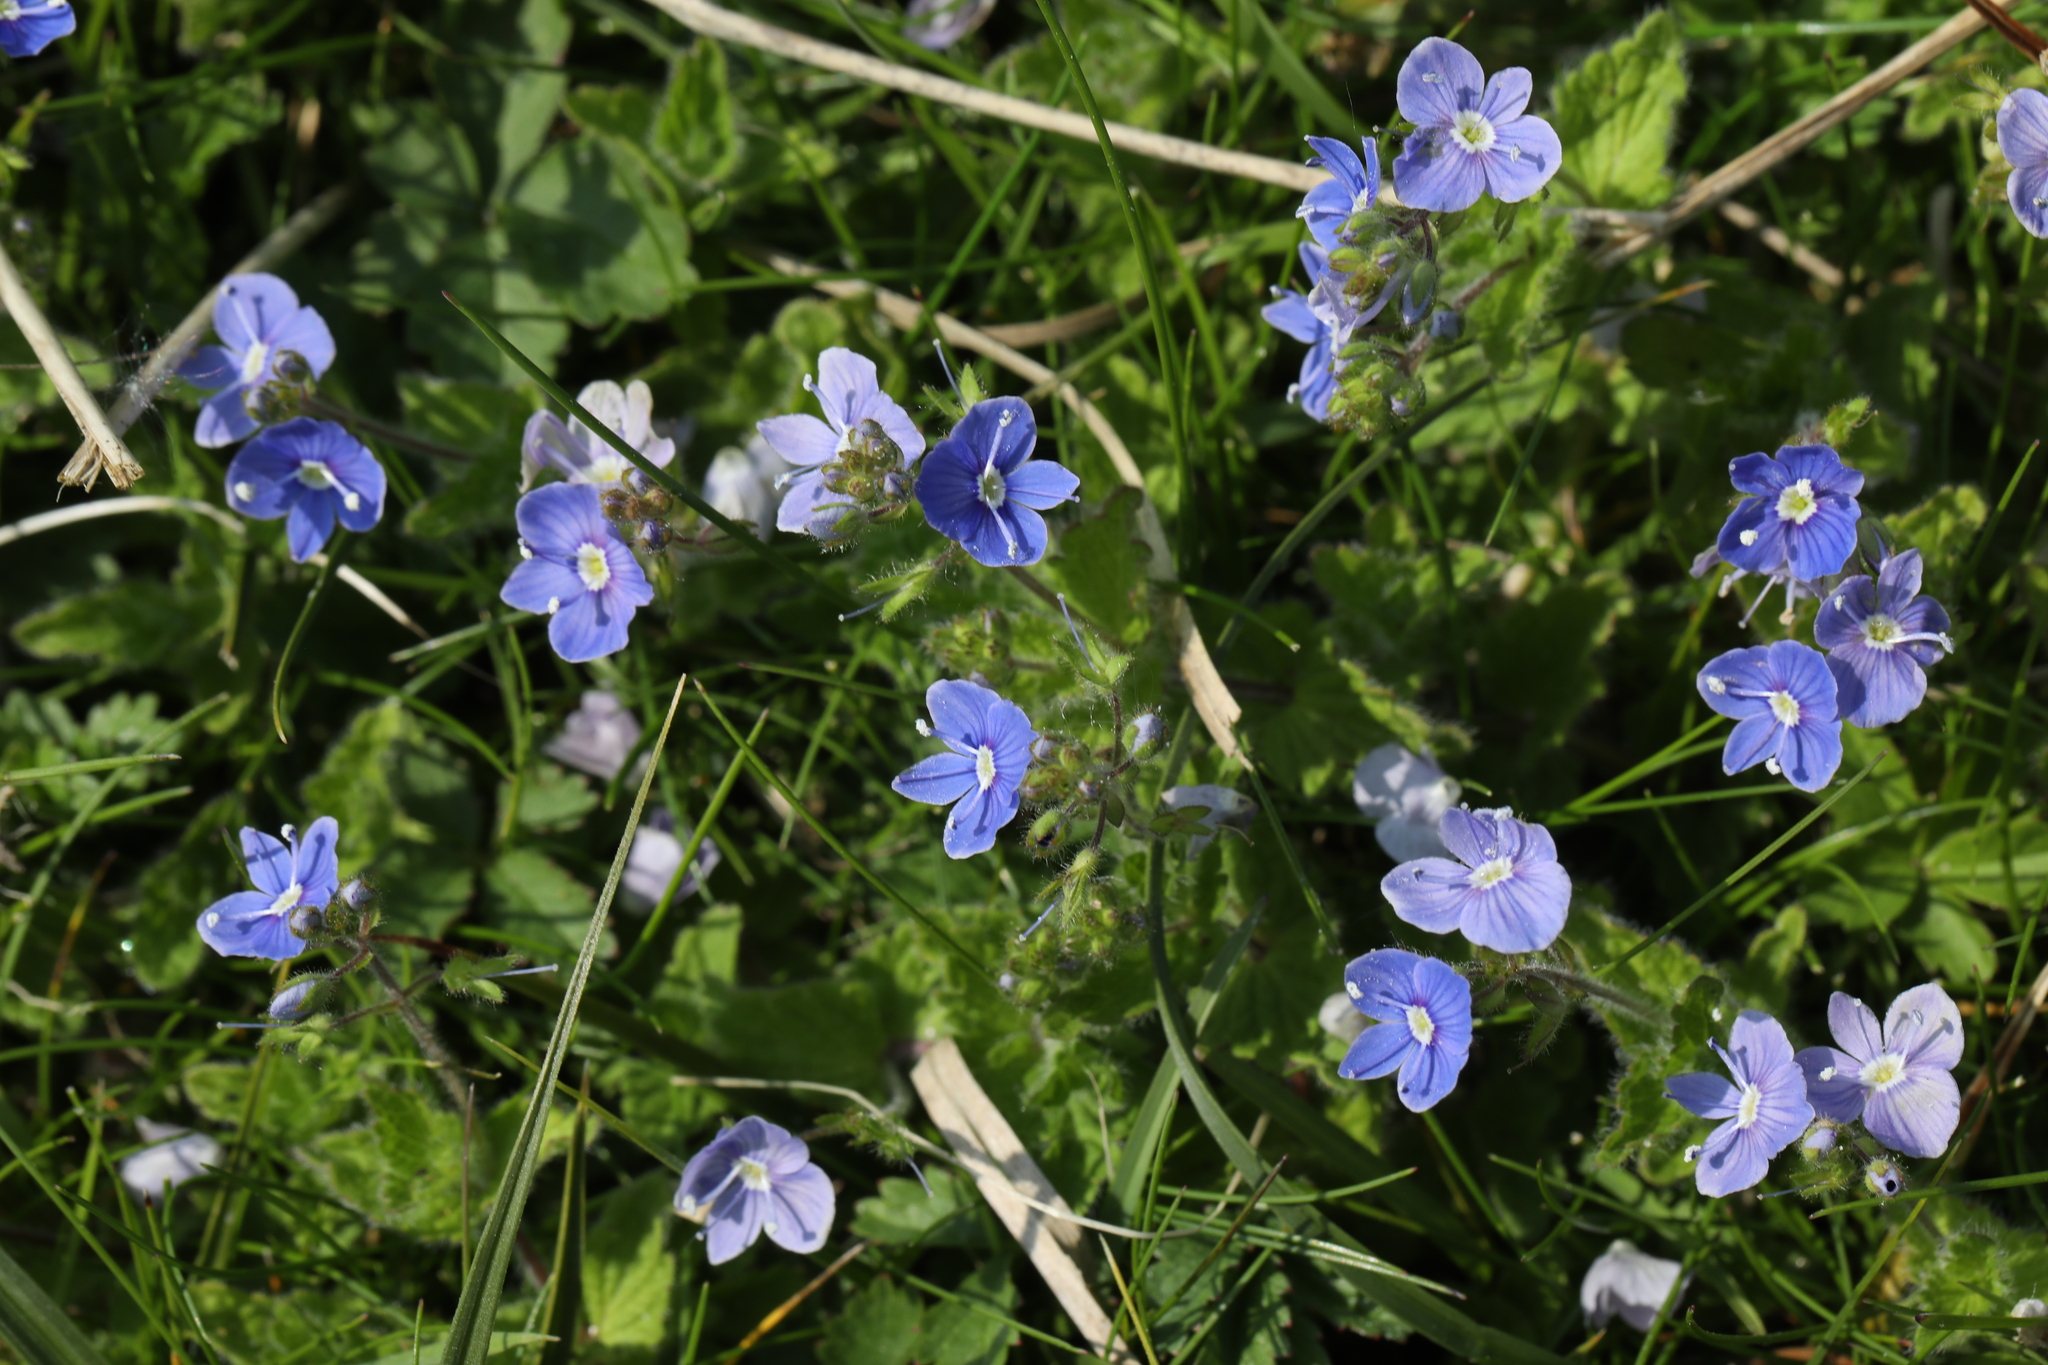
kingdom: Plantae
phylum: Tracheophyta
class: Magnoliopsida
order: Lamiales
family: Plantaginaceae
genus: Veronica
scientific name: Veronica chamaedrys
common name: Germander speedwell
